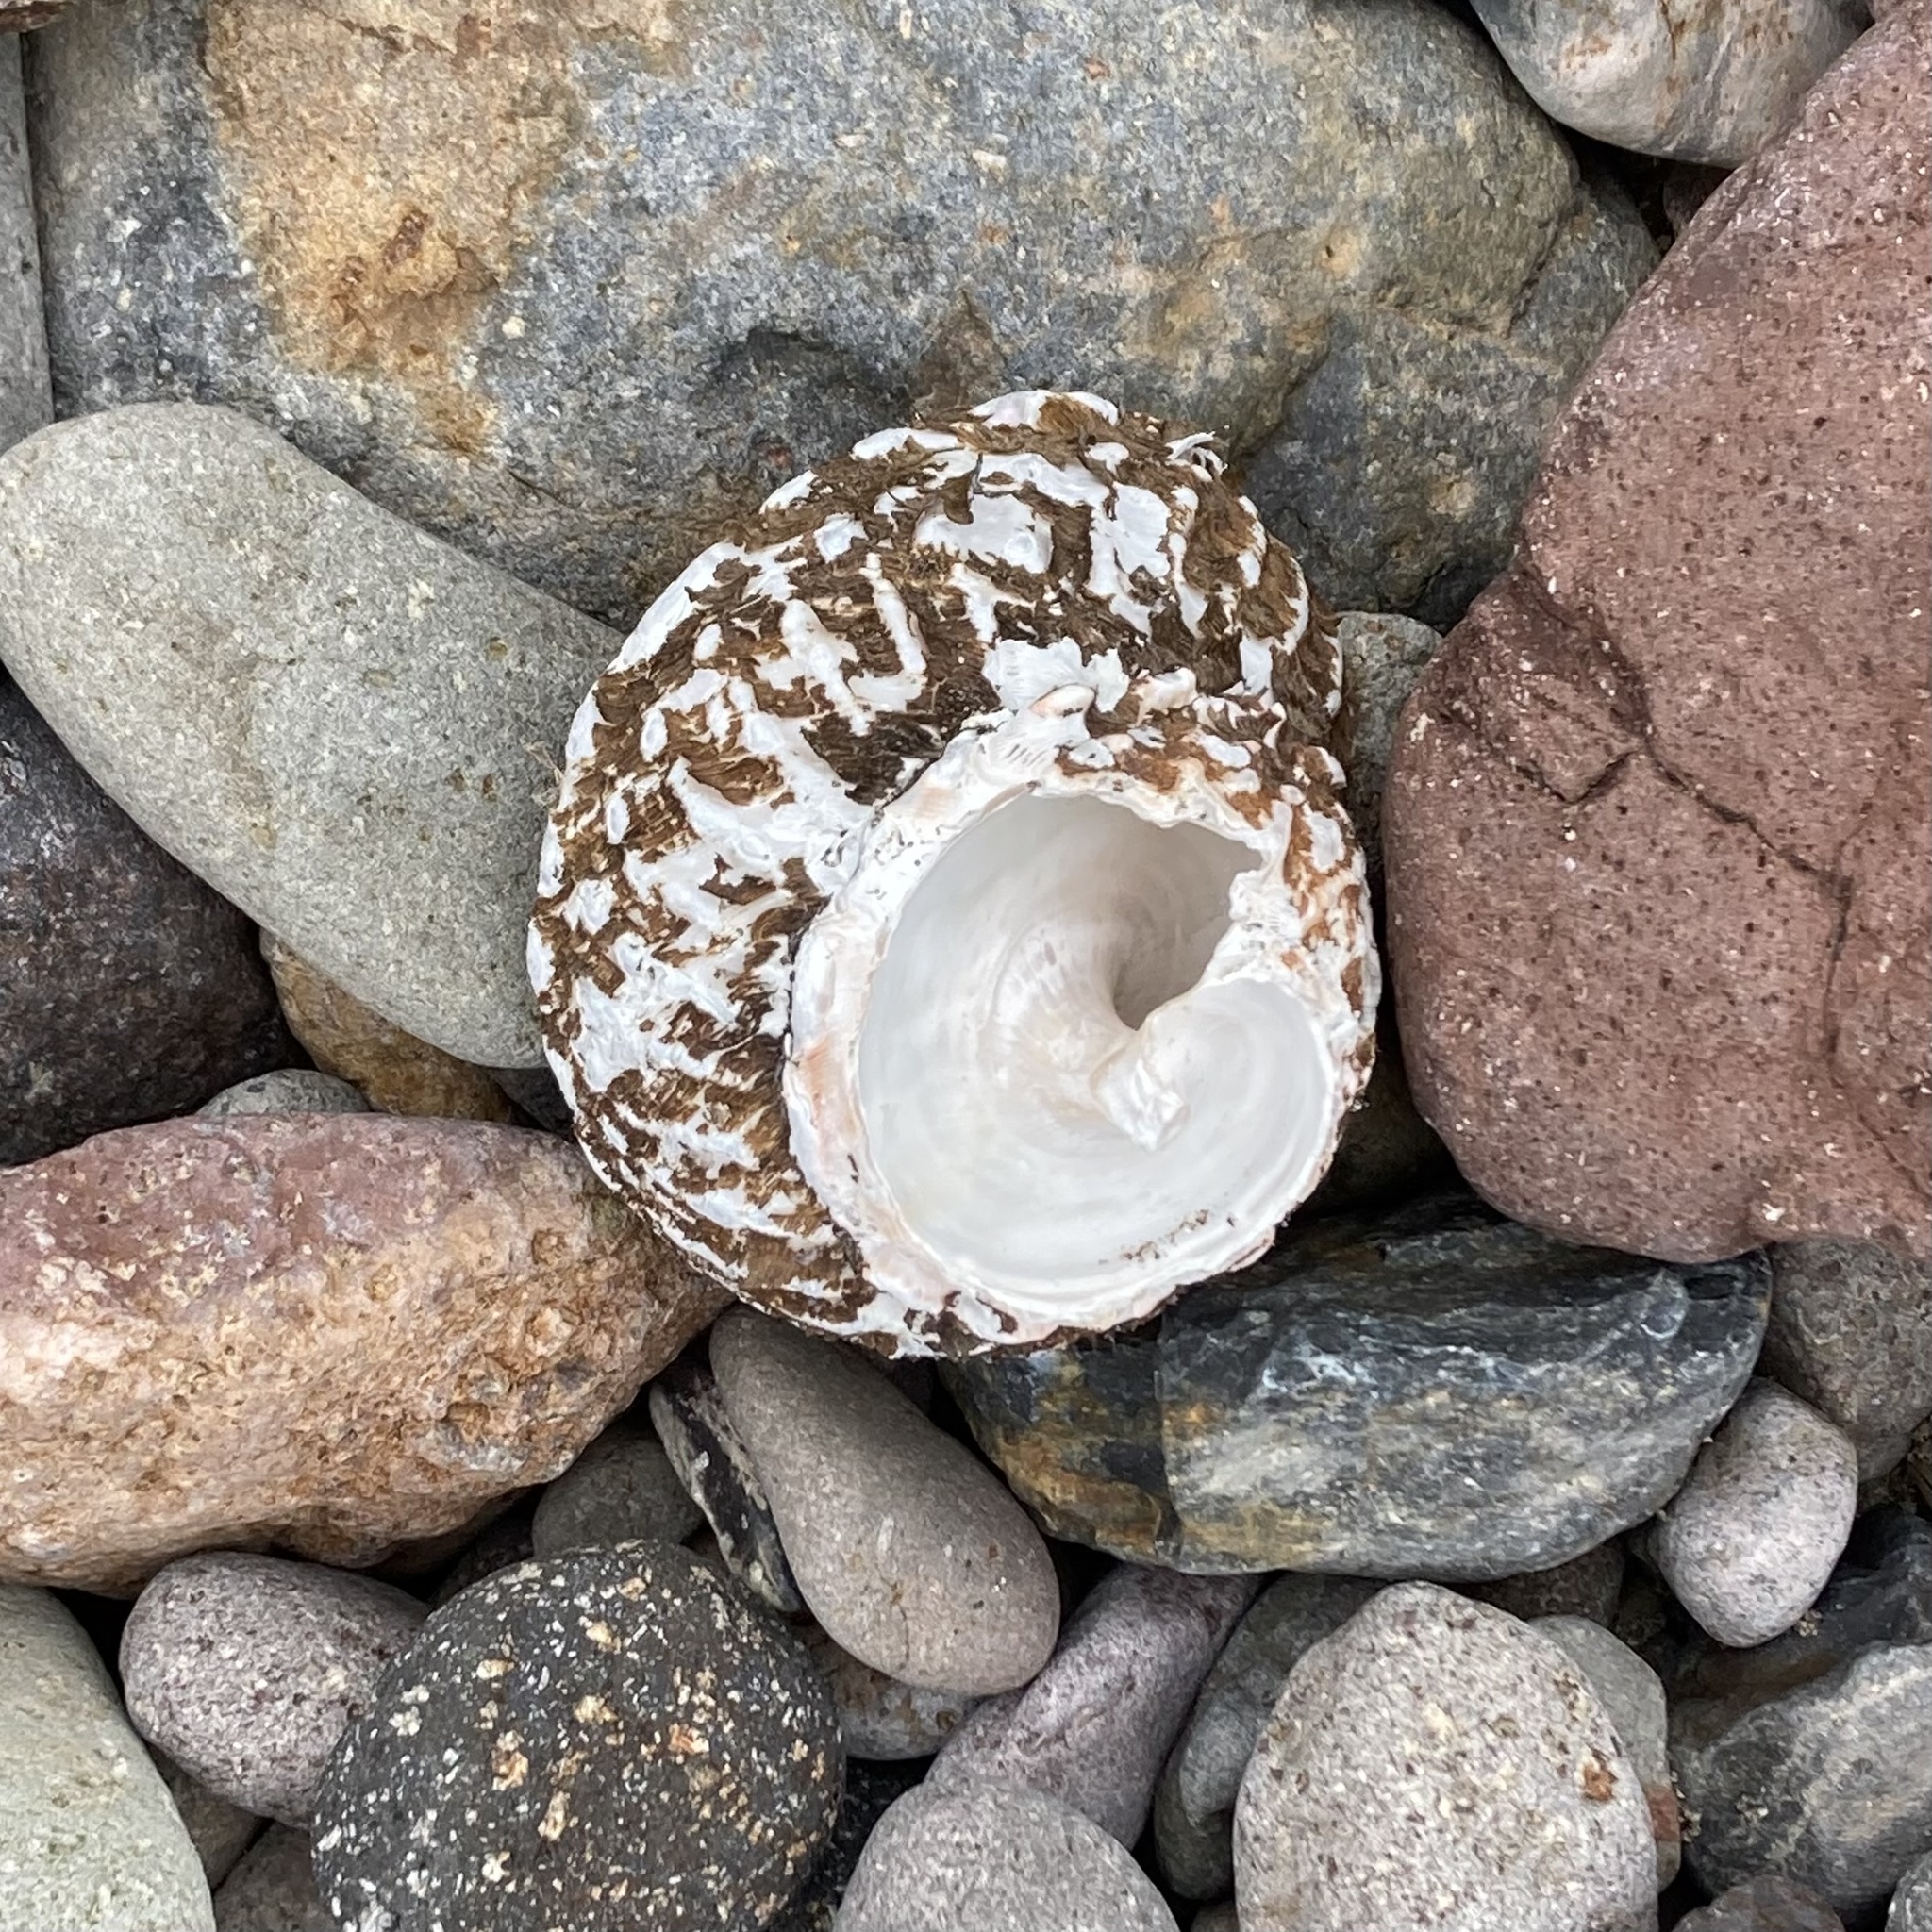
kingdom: Animalia
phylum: Mollusca
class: Gastropoda
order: Trochida
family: Turbinidae
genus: Megastraea
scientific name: Megastraea undosa
